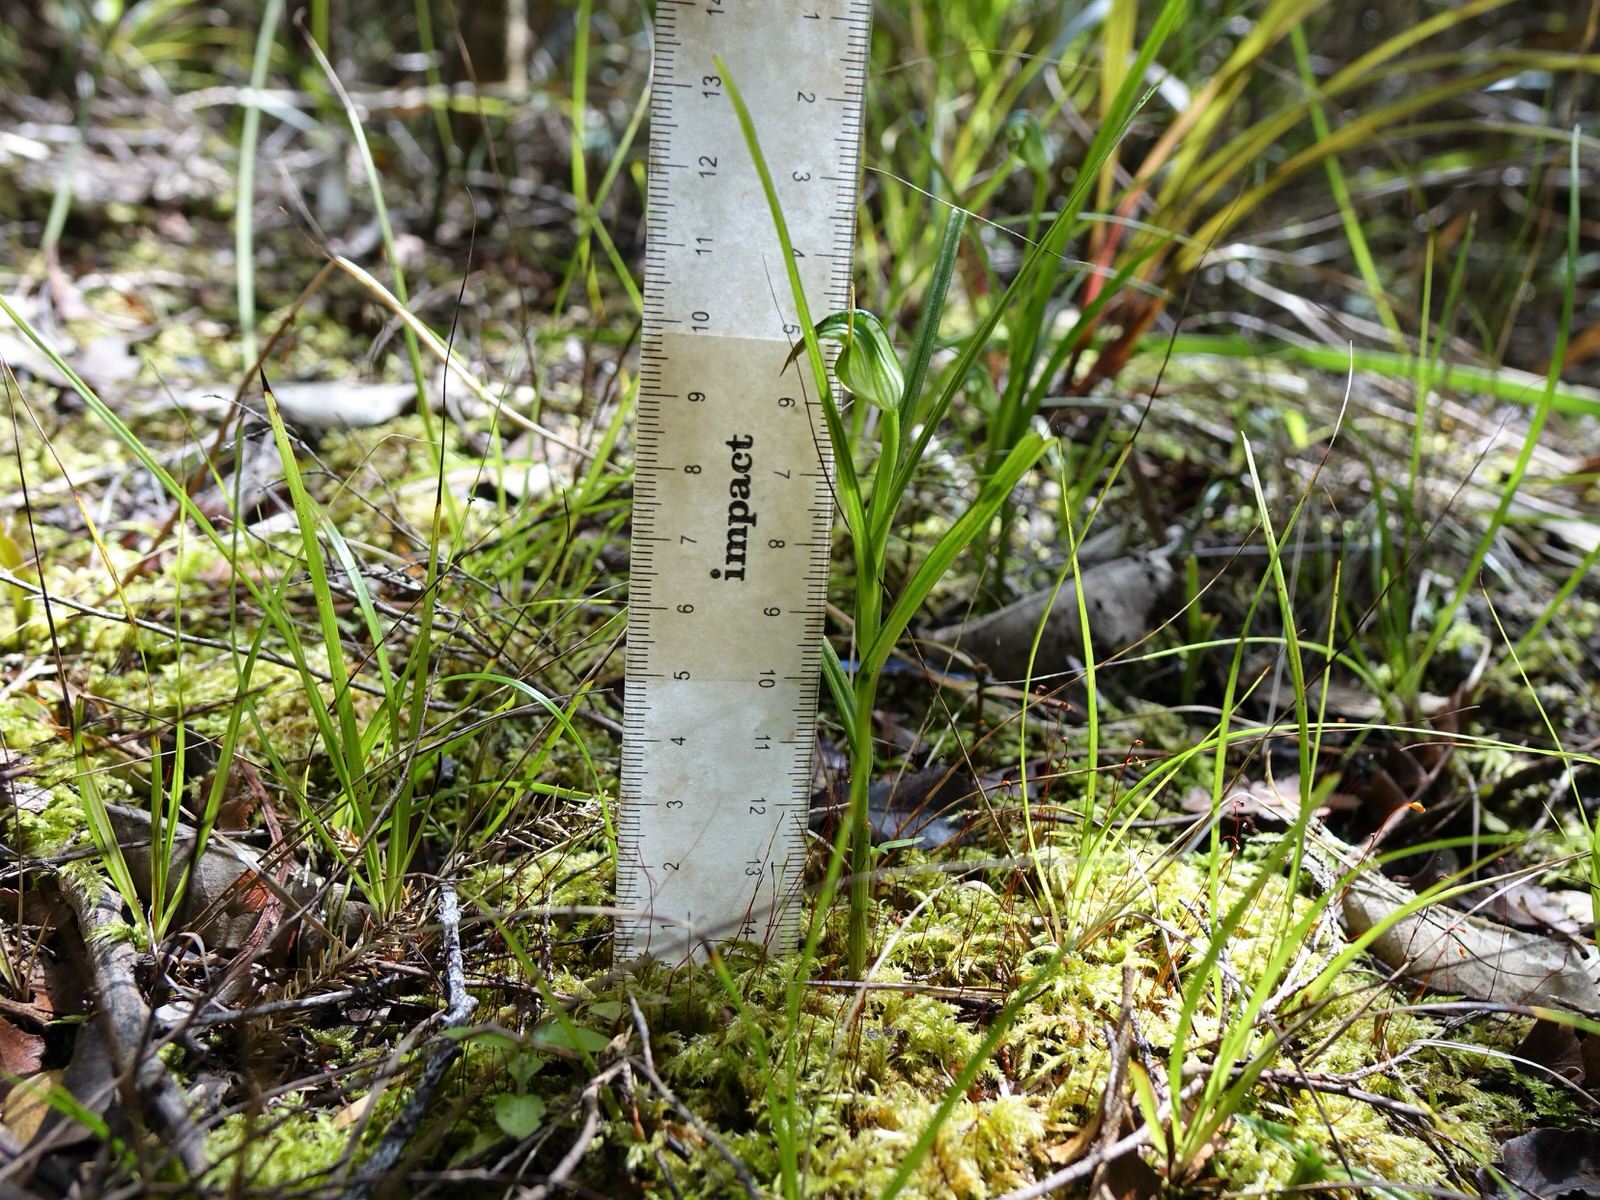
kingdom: Plantae
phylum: Tracheophyta
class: Liliopsida
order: Asparagales
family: Orchidaceae
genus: Pterostylis
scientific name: Pterostylis graminea
